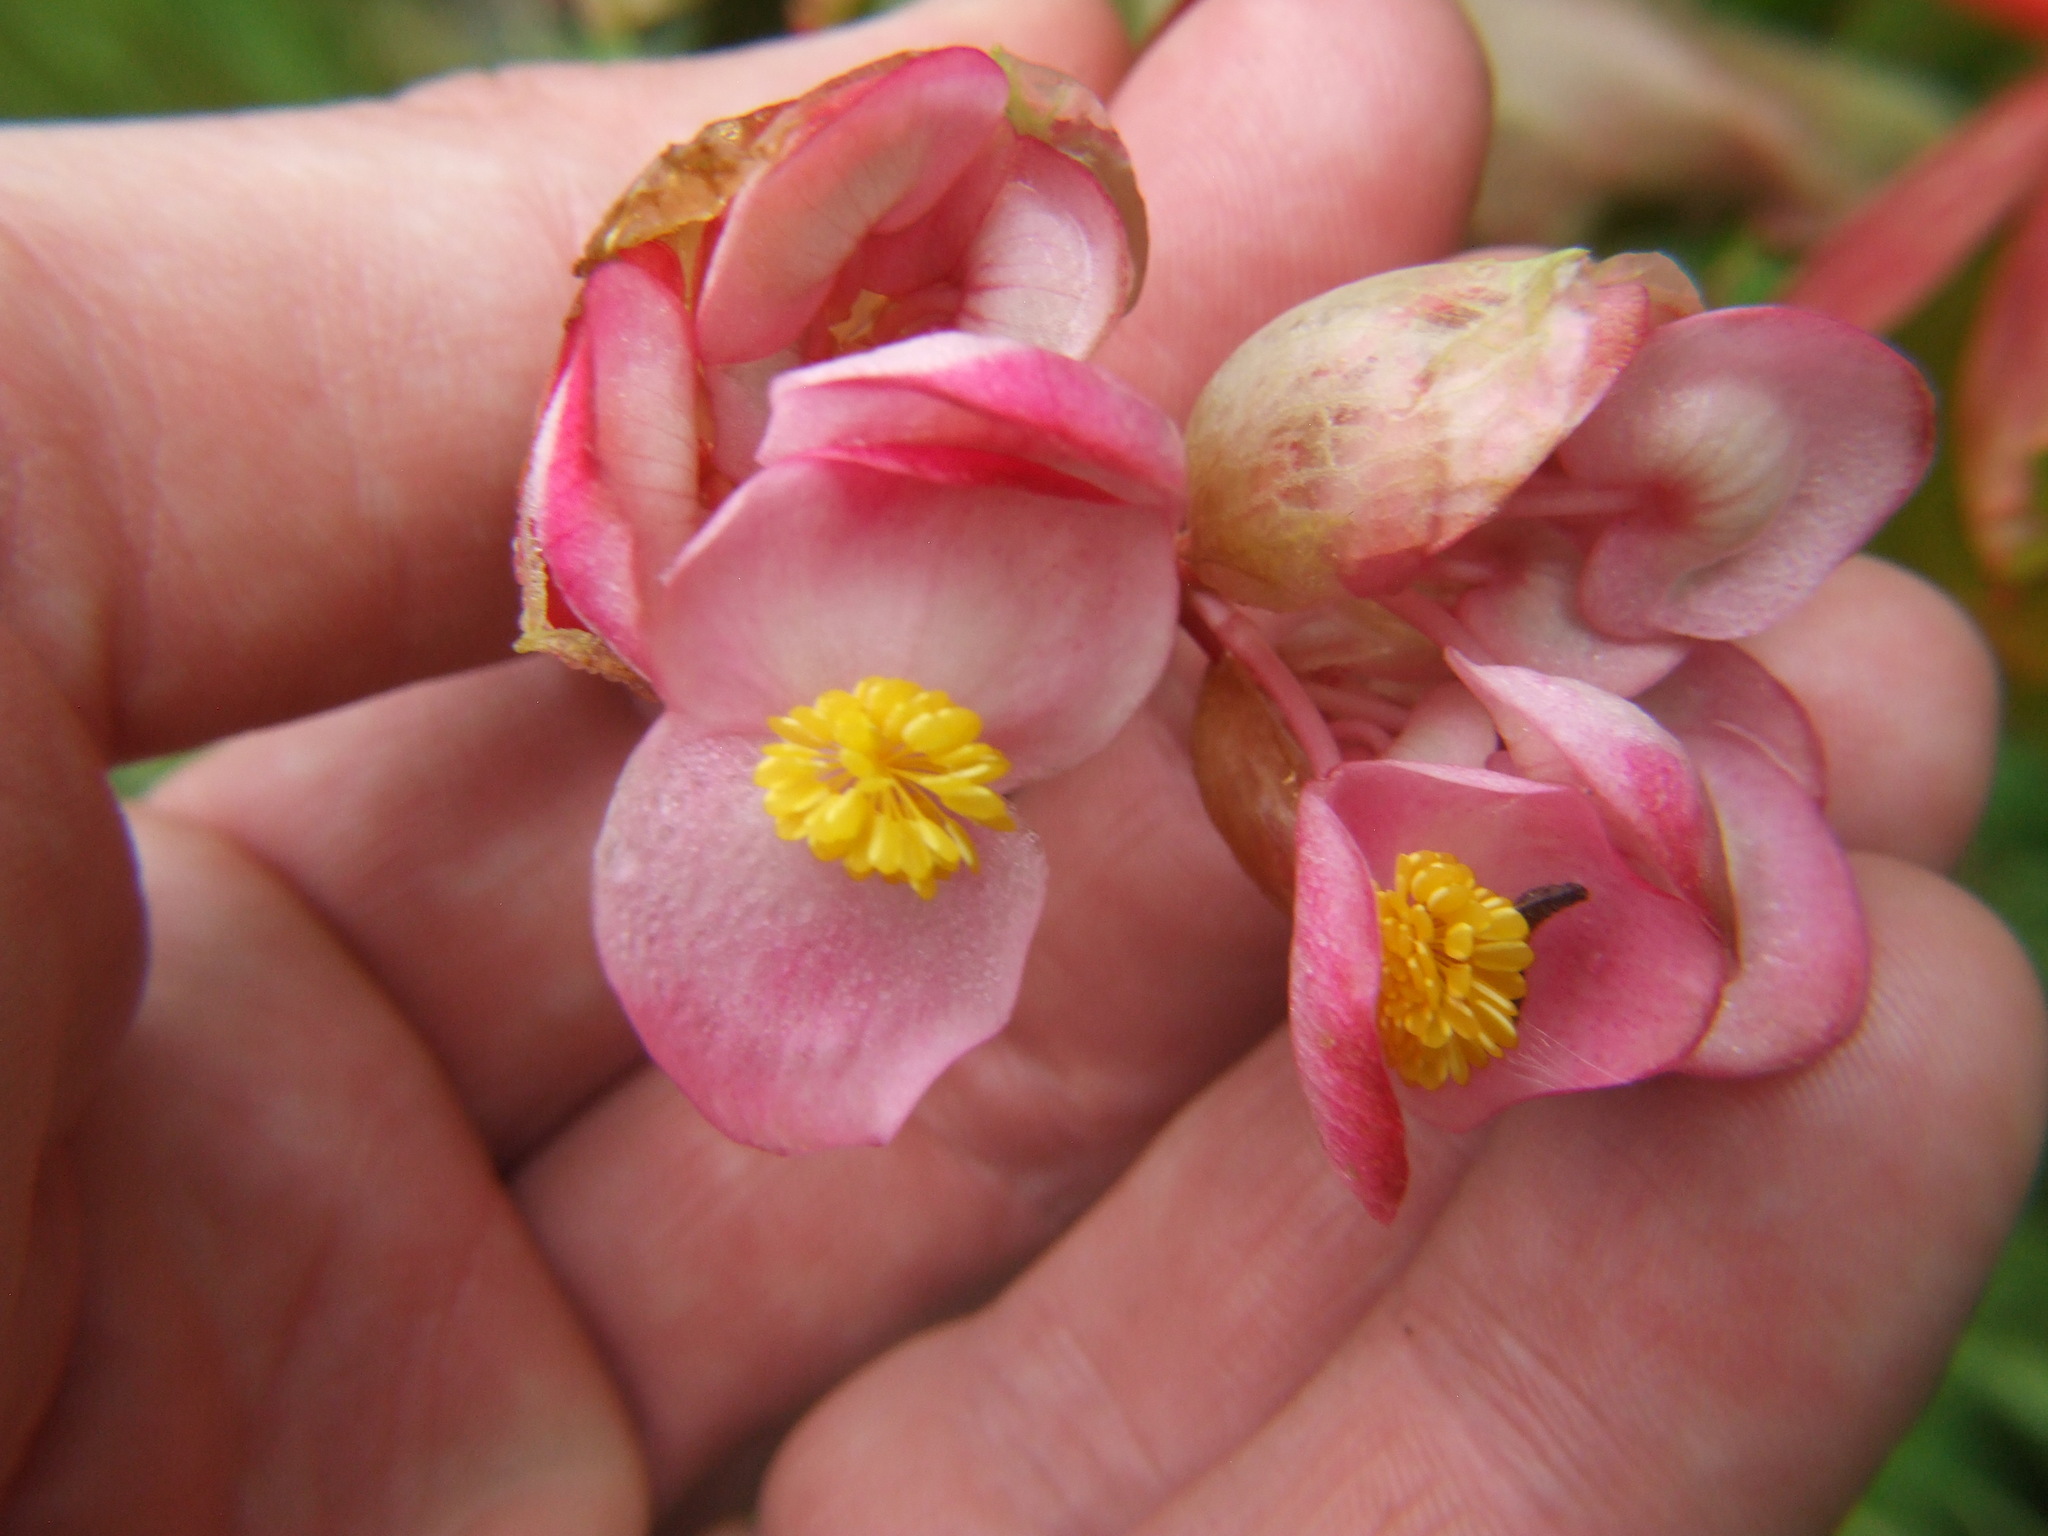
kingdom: Plantae
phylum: Tracheophyta
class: Magnoliopsida
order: Cucurbitales
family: Begoniaceae
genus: Begonia
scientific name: Begonia bracteosa
